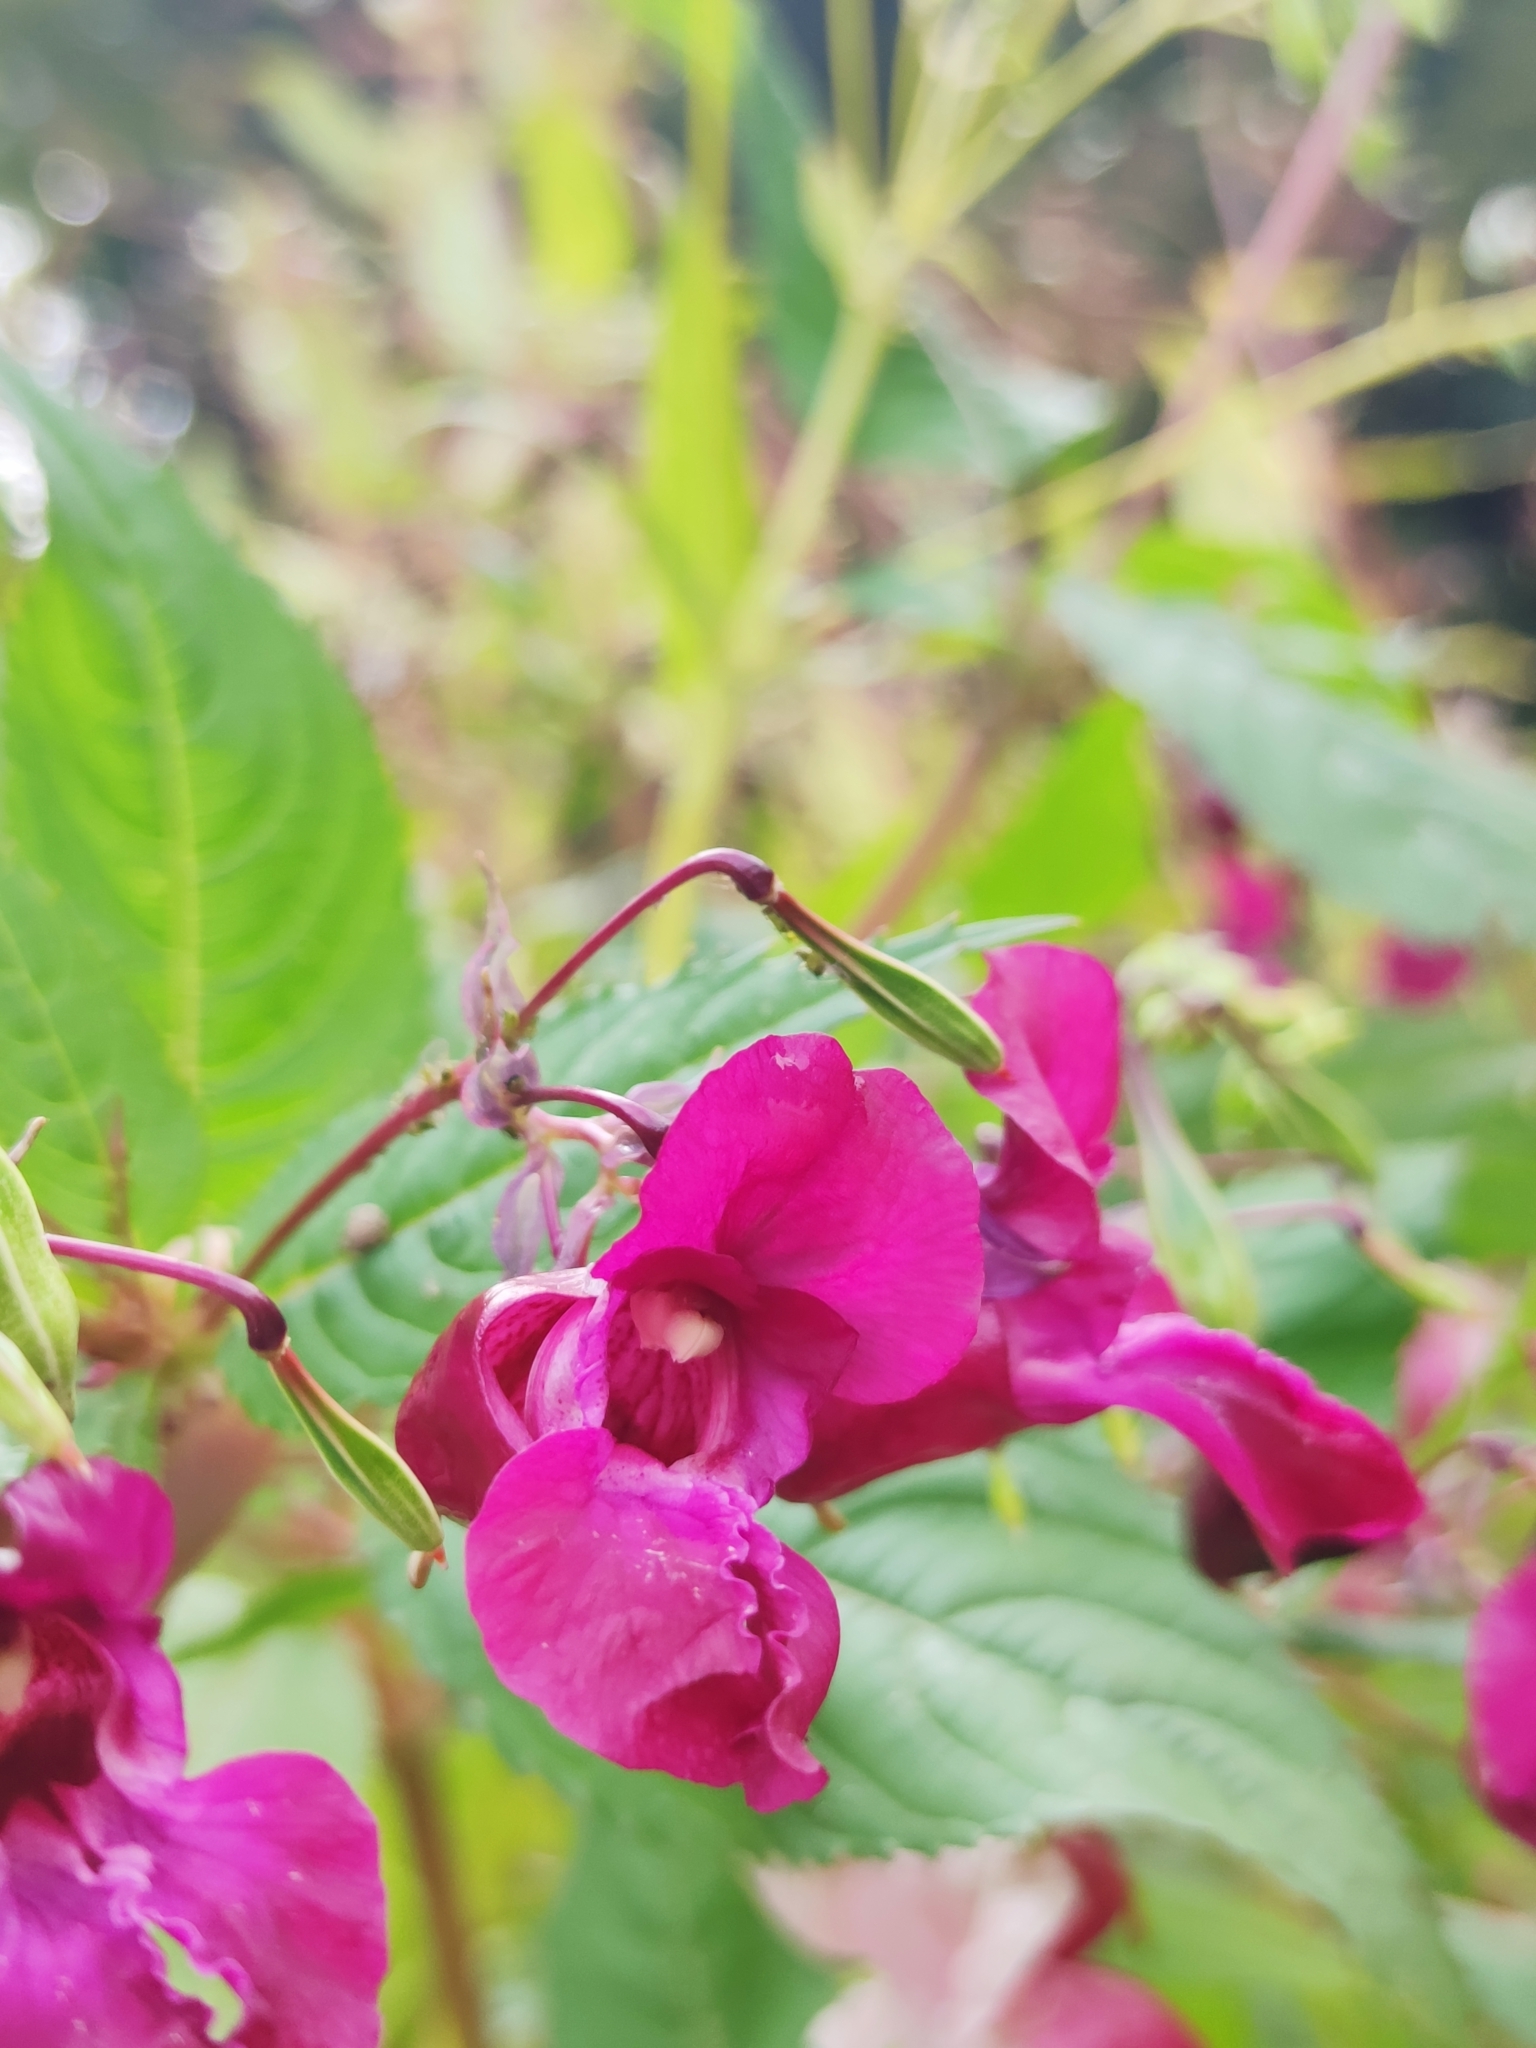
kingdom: Plantae
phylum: Tracheophyta
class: Magnoliopsida
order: Ericales
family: Balsaminaceae
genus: Impatiens
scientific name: Impatiens glandulifera
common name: Himalayan balsam
